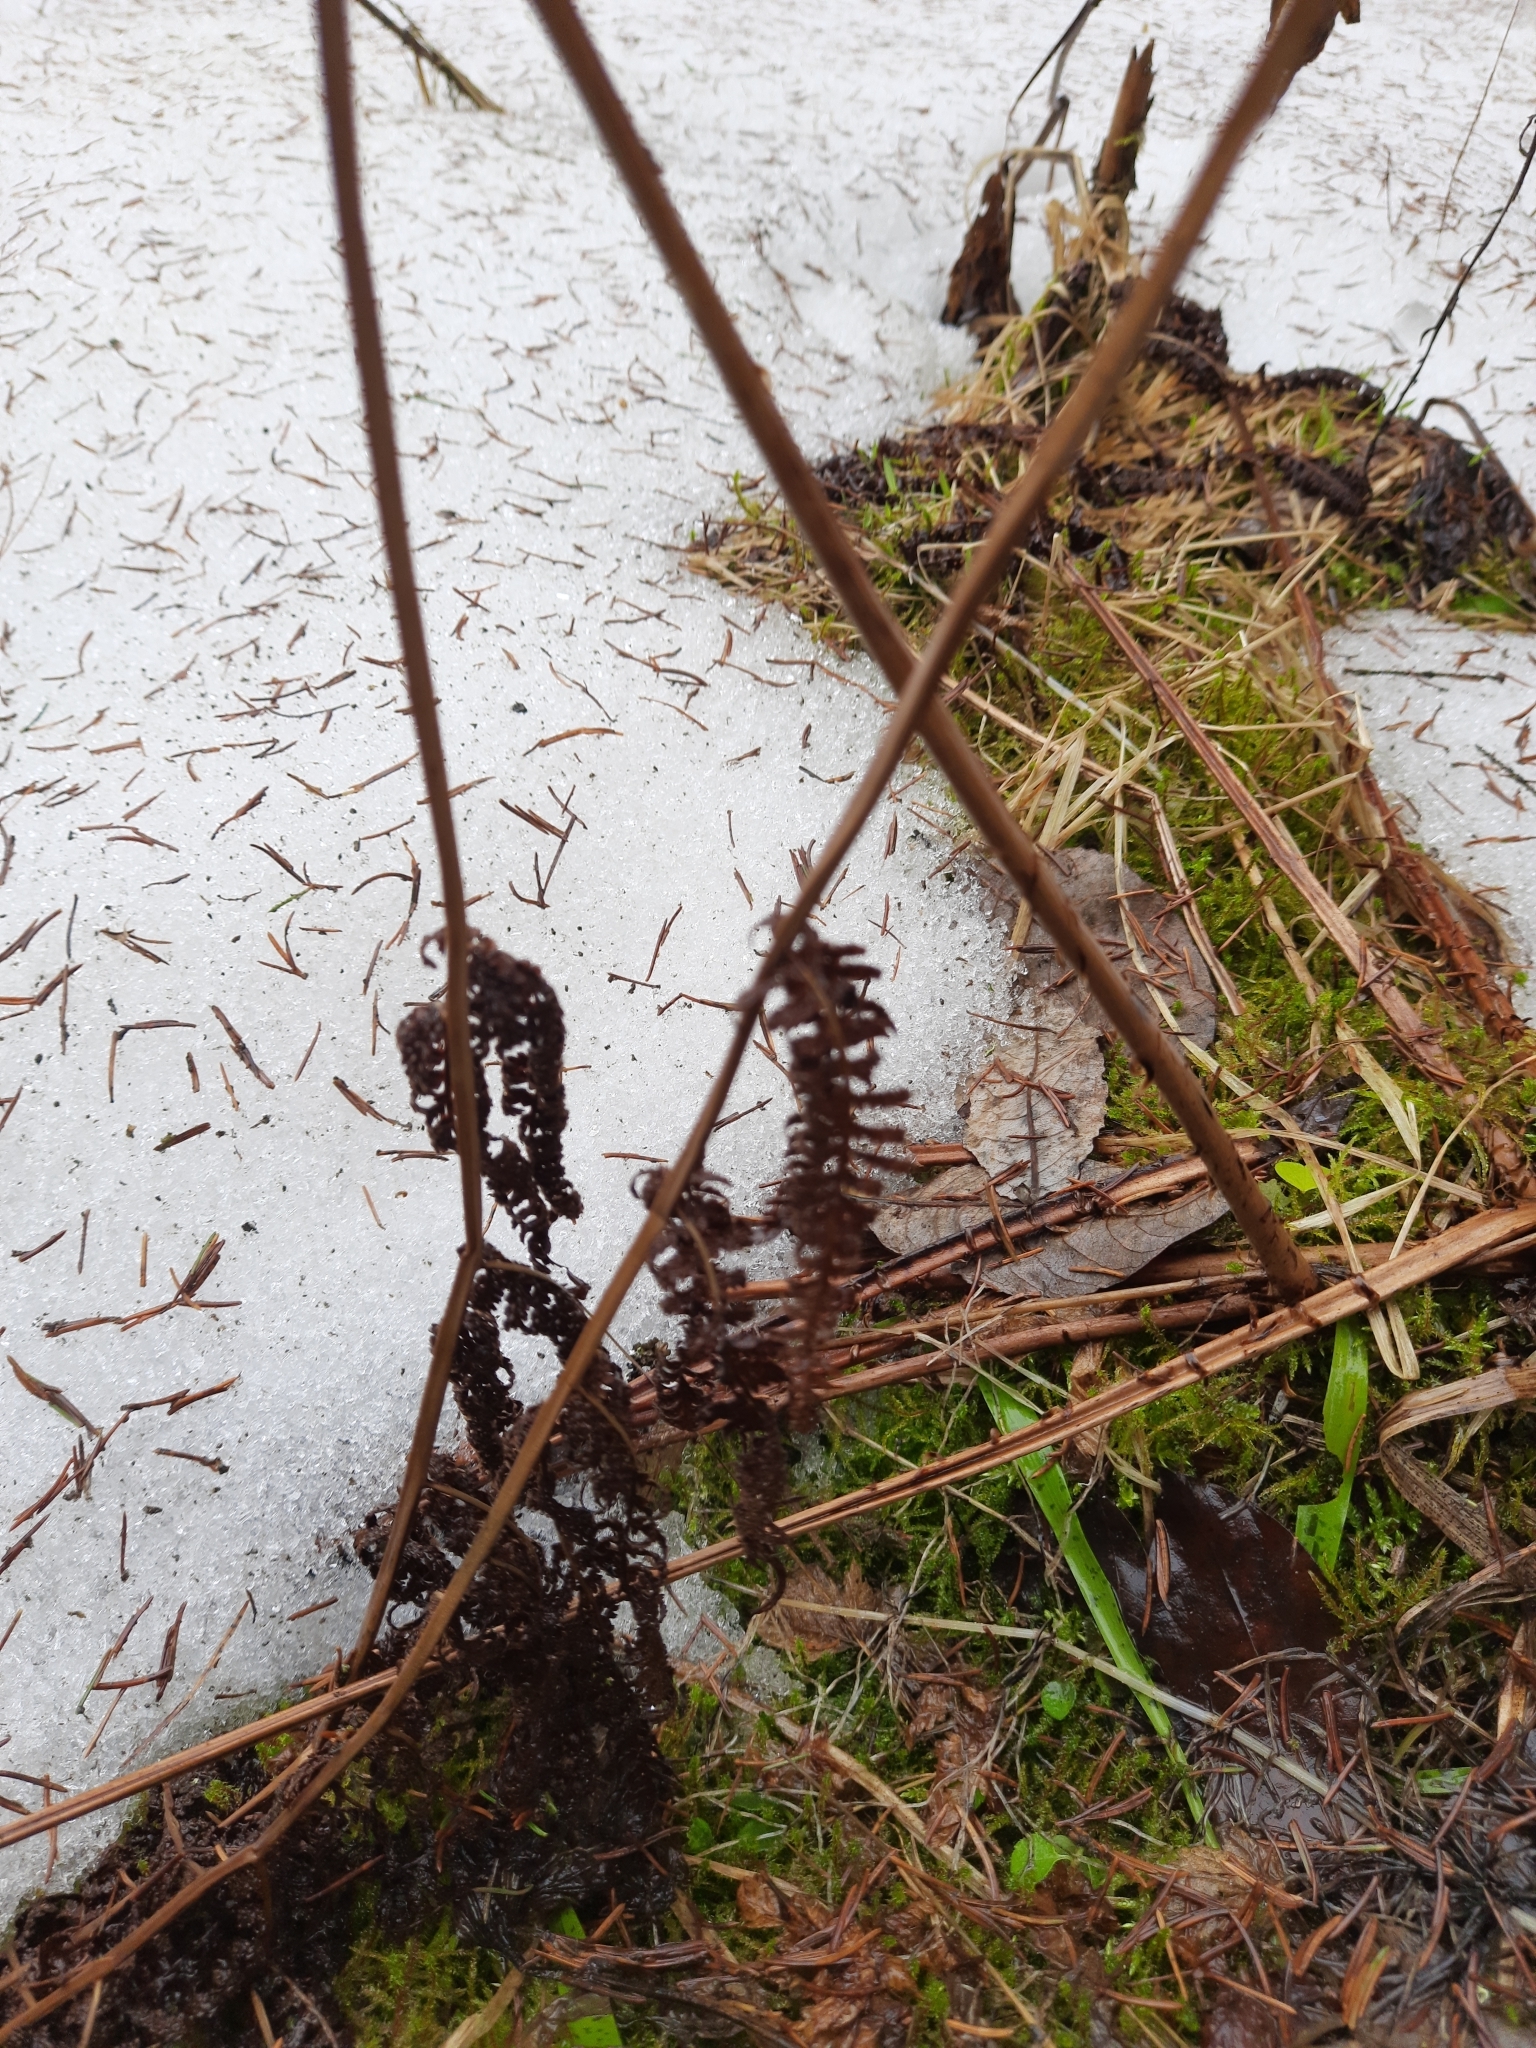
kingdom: Plantae
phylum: Tracheophyta
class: Polypodiopsida
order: Polypodiales
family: Onocleaceae
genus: Matteuccia
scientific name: Matteuccia struthiopteris
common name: Ostrich fern
